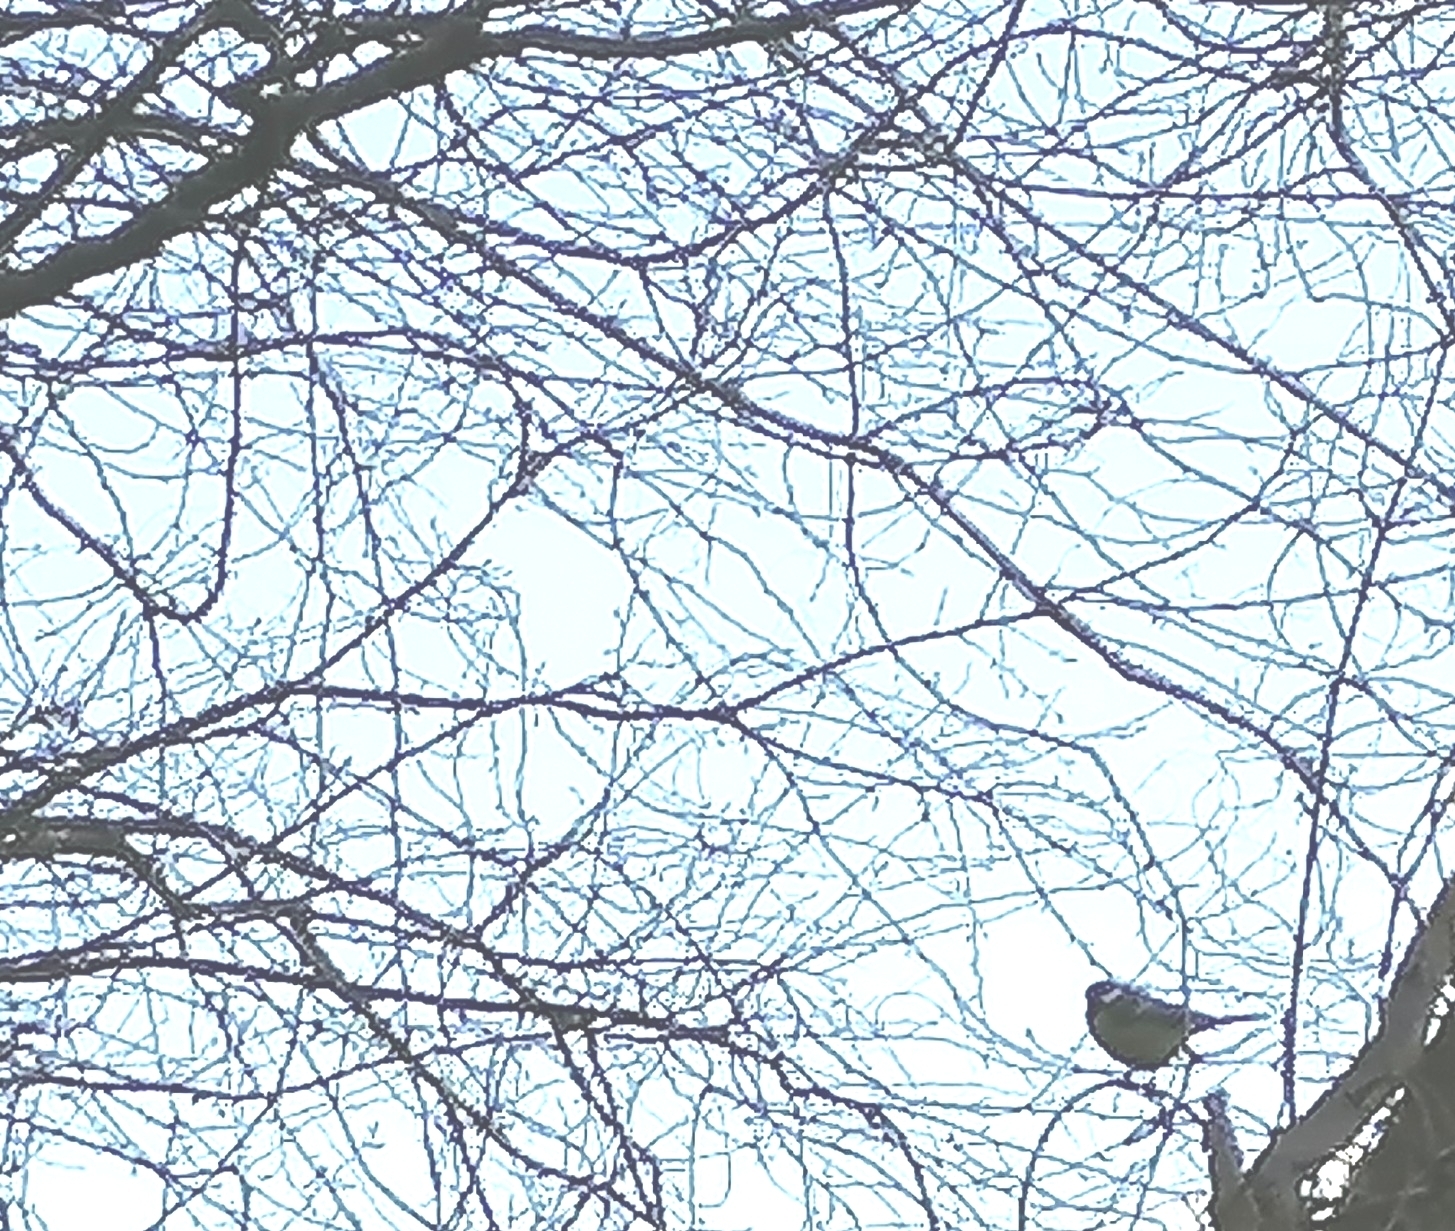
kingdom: Animalia
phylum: Chordata
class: Aves
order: Passeriformes
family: Paridae
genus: Parus
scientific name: Parus major
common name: Great tit
